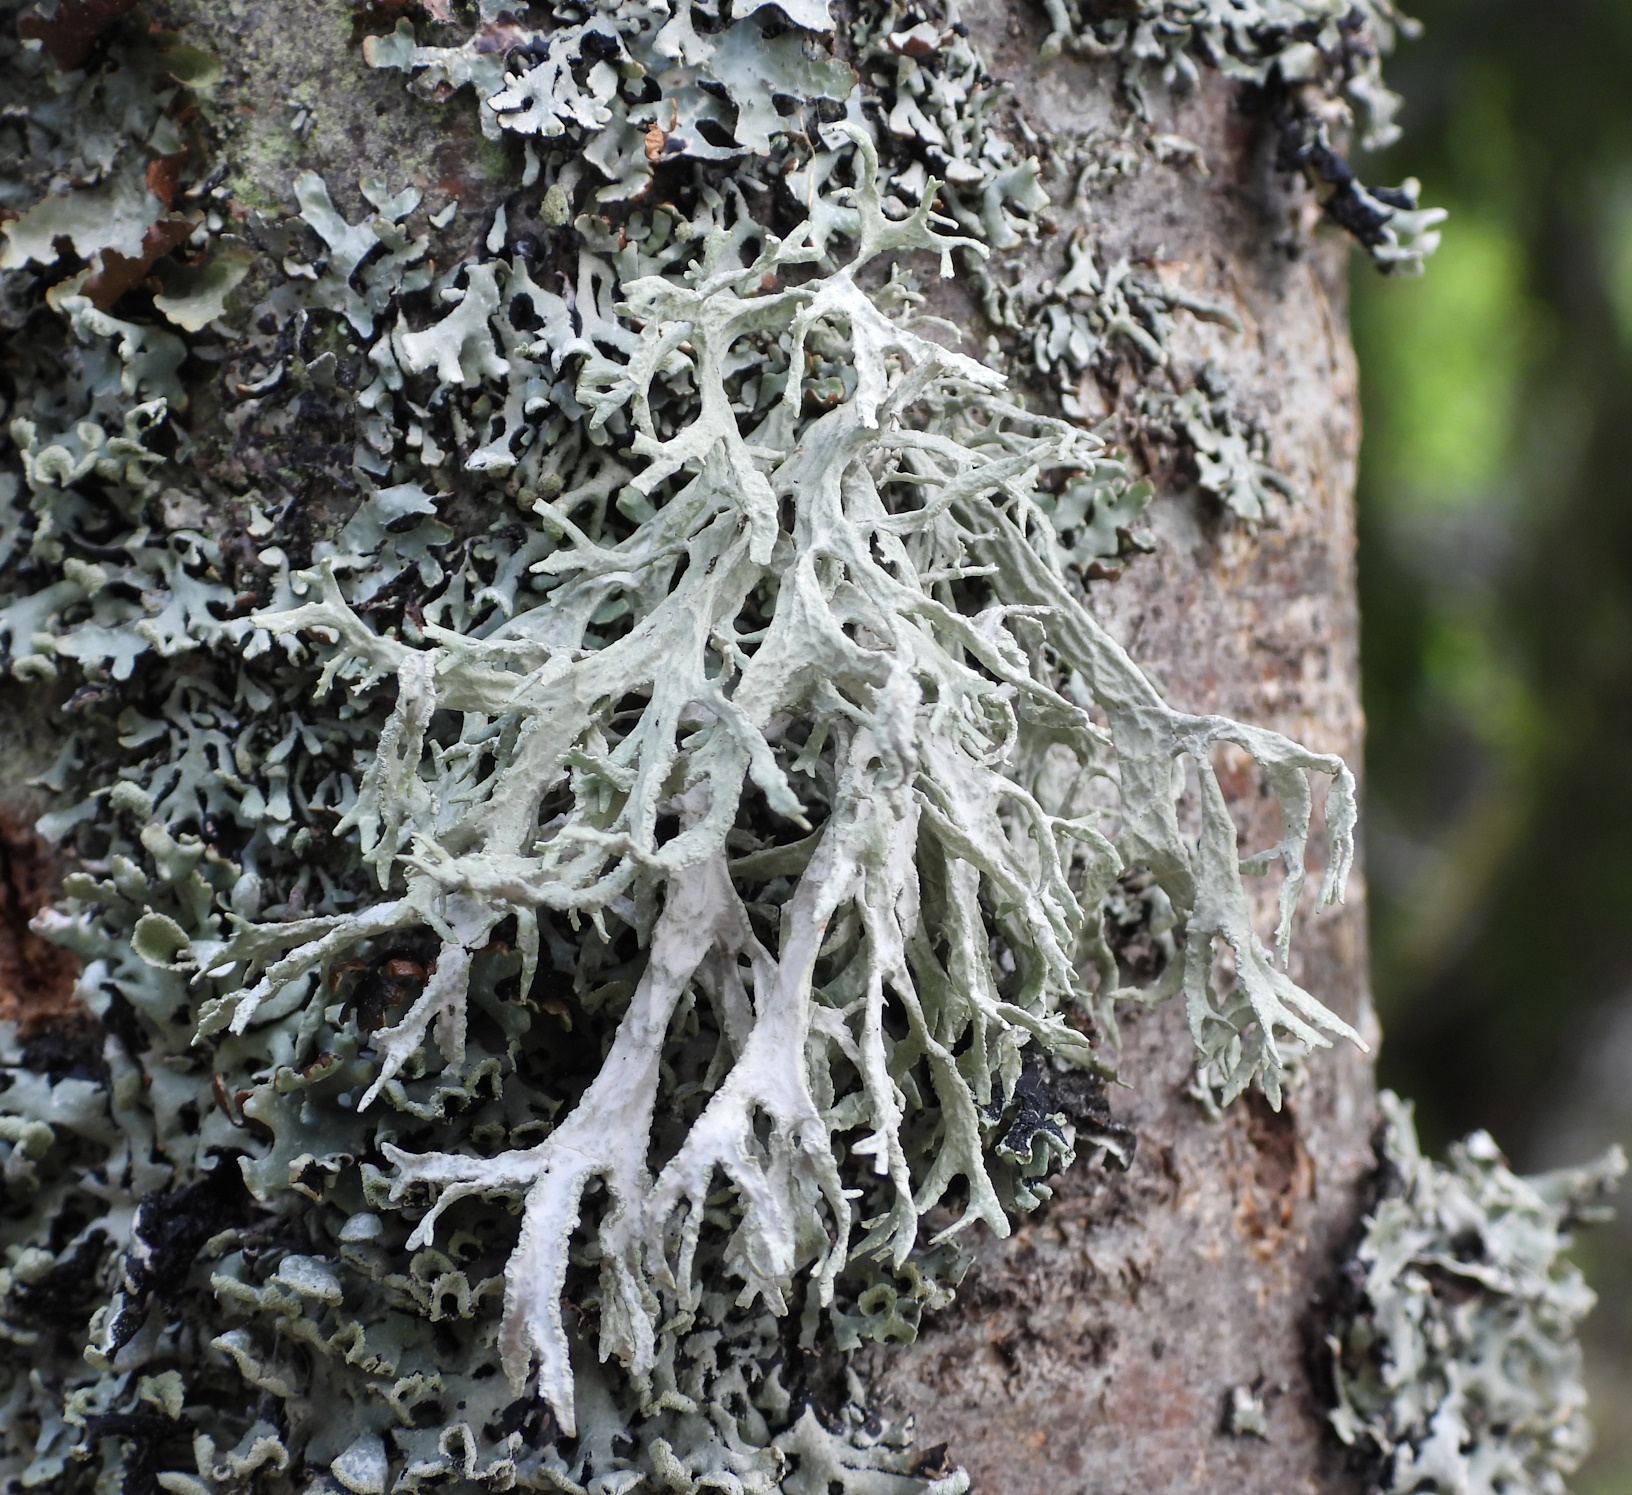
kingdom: Fungi
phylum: Ascomycota
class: Lecanoromycetes
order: Lecanorales
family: Parmeliaceae
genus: Evernia
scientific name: Evernia prunastri
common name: Oak moss
